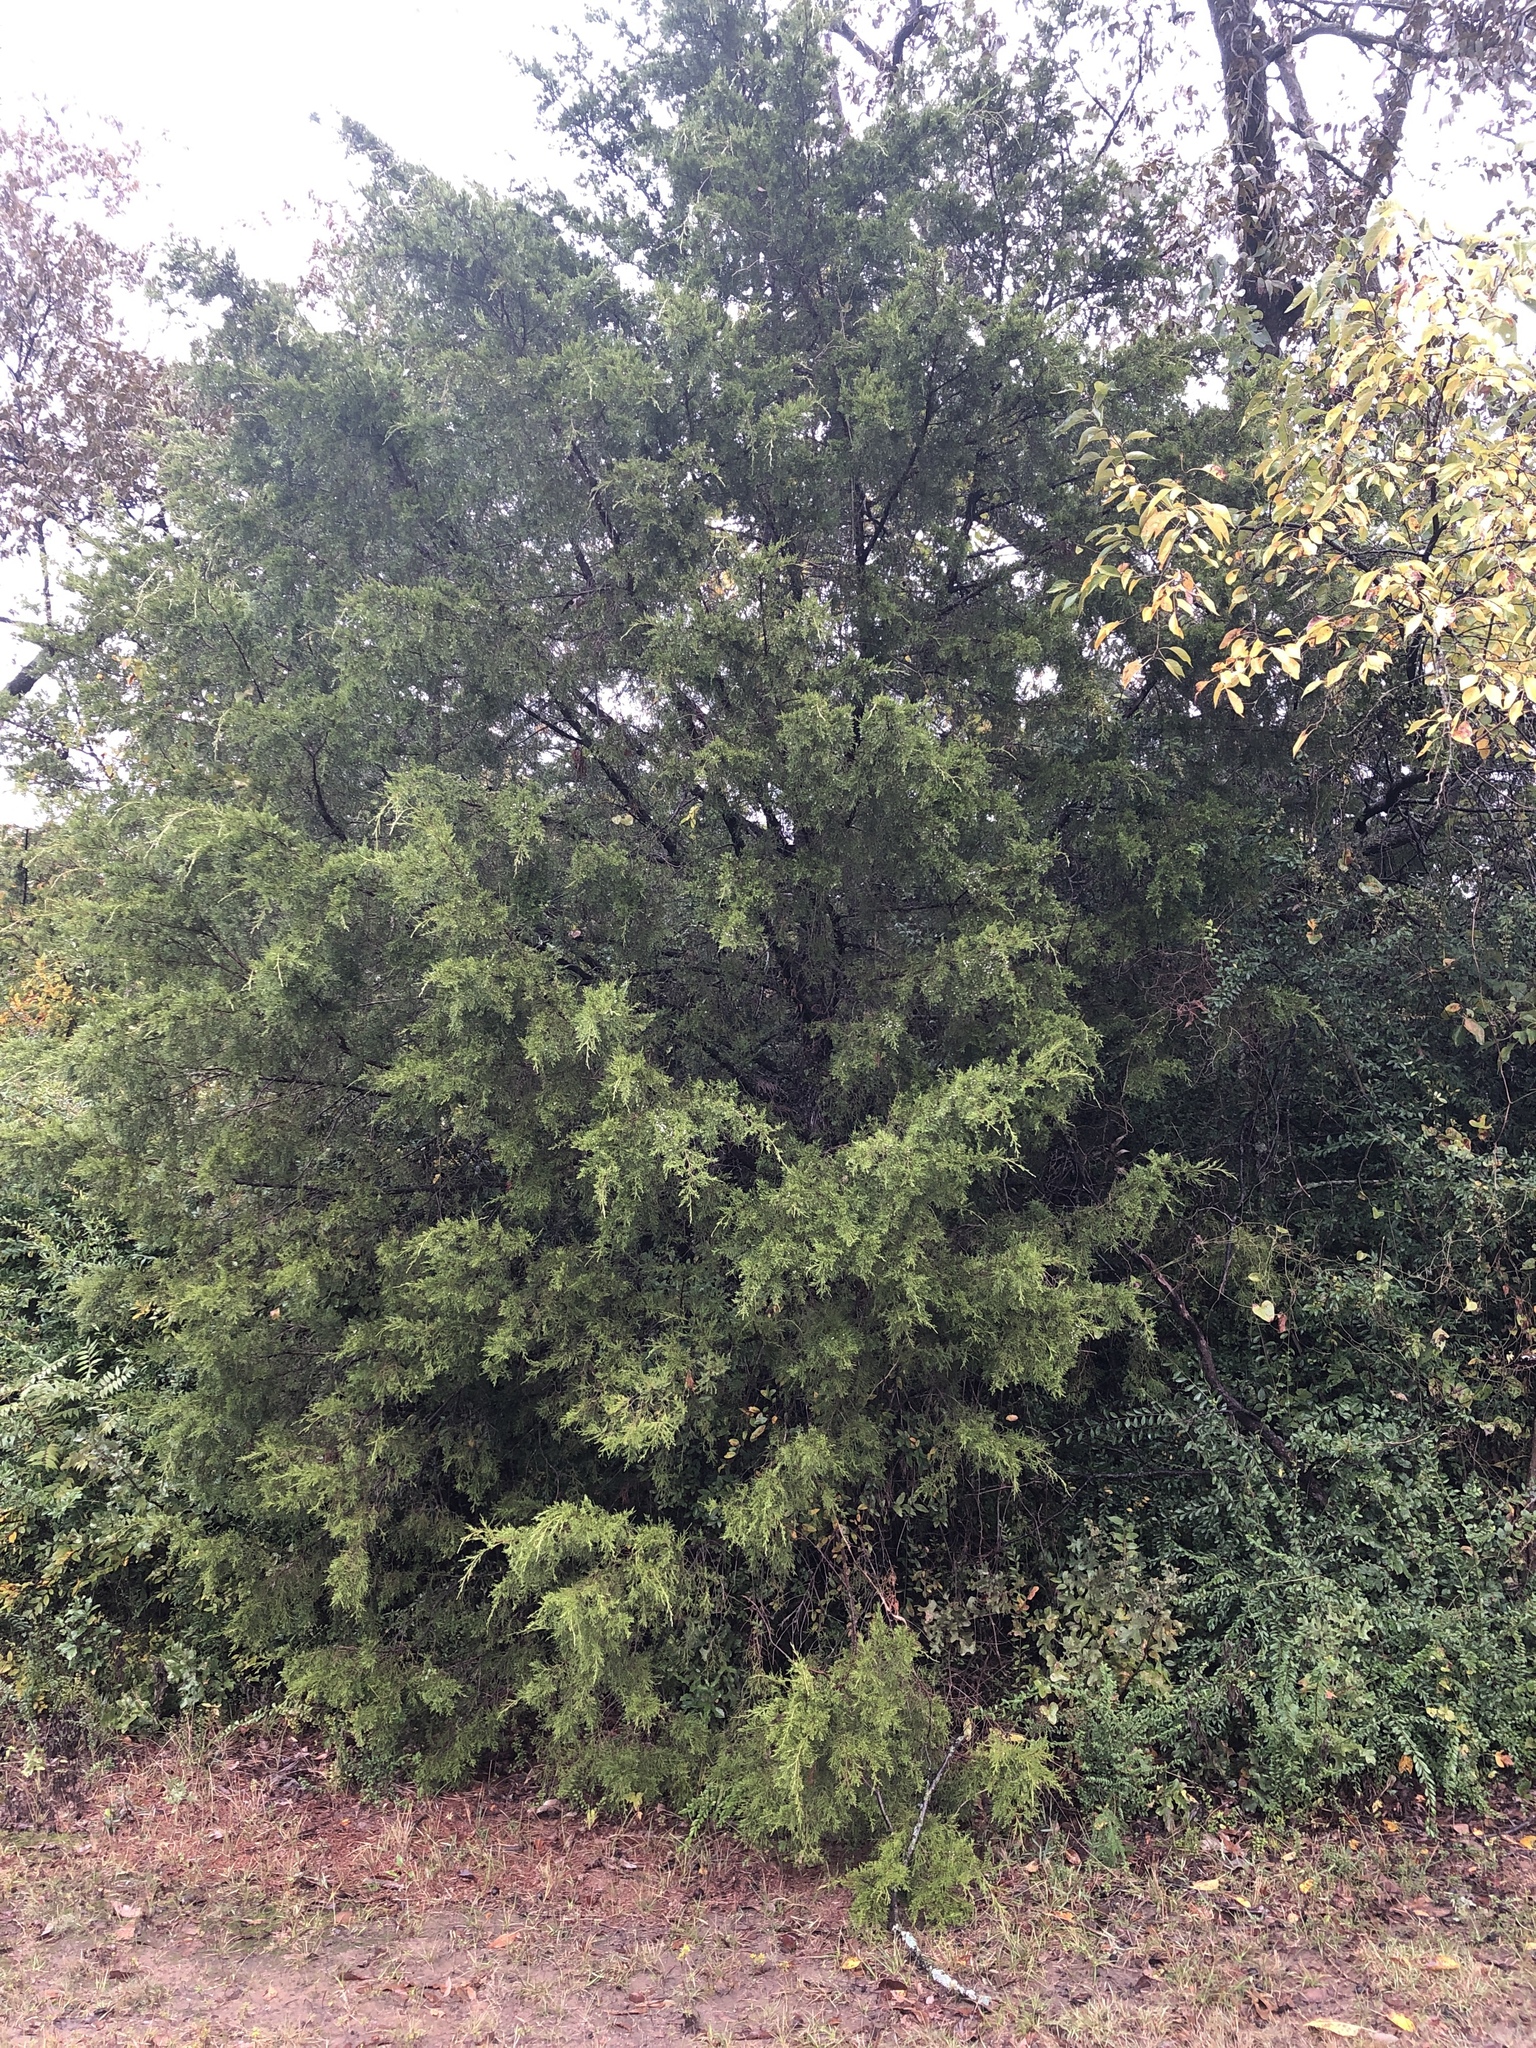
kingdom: Plantae
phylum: Tracheophyta
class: Pinopsida
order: Pinales
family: Cupressaceae
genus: Juniperus
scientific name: Juniperus virginiana
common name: Red juniper
